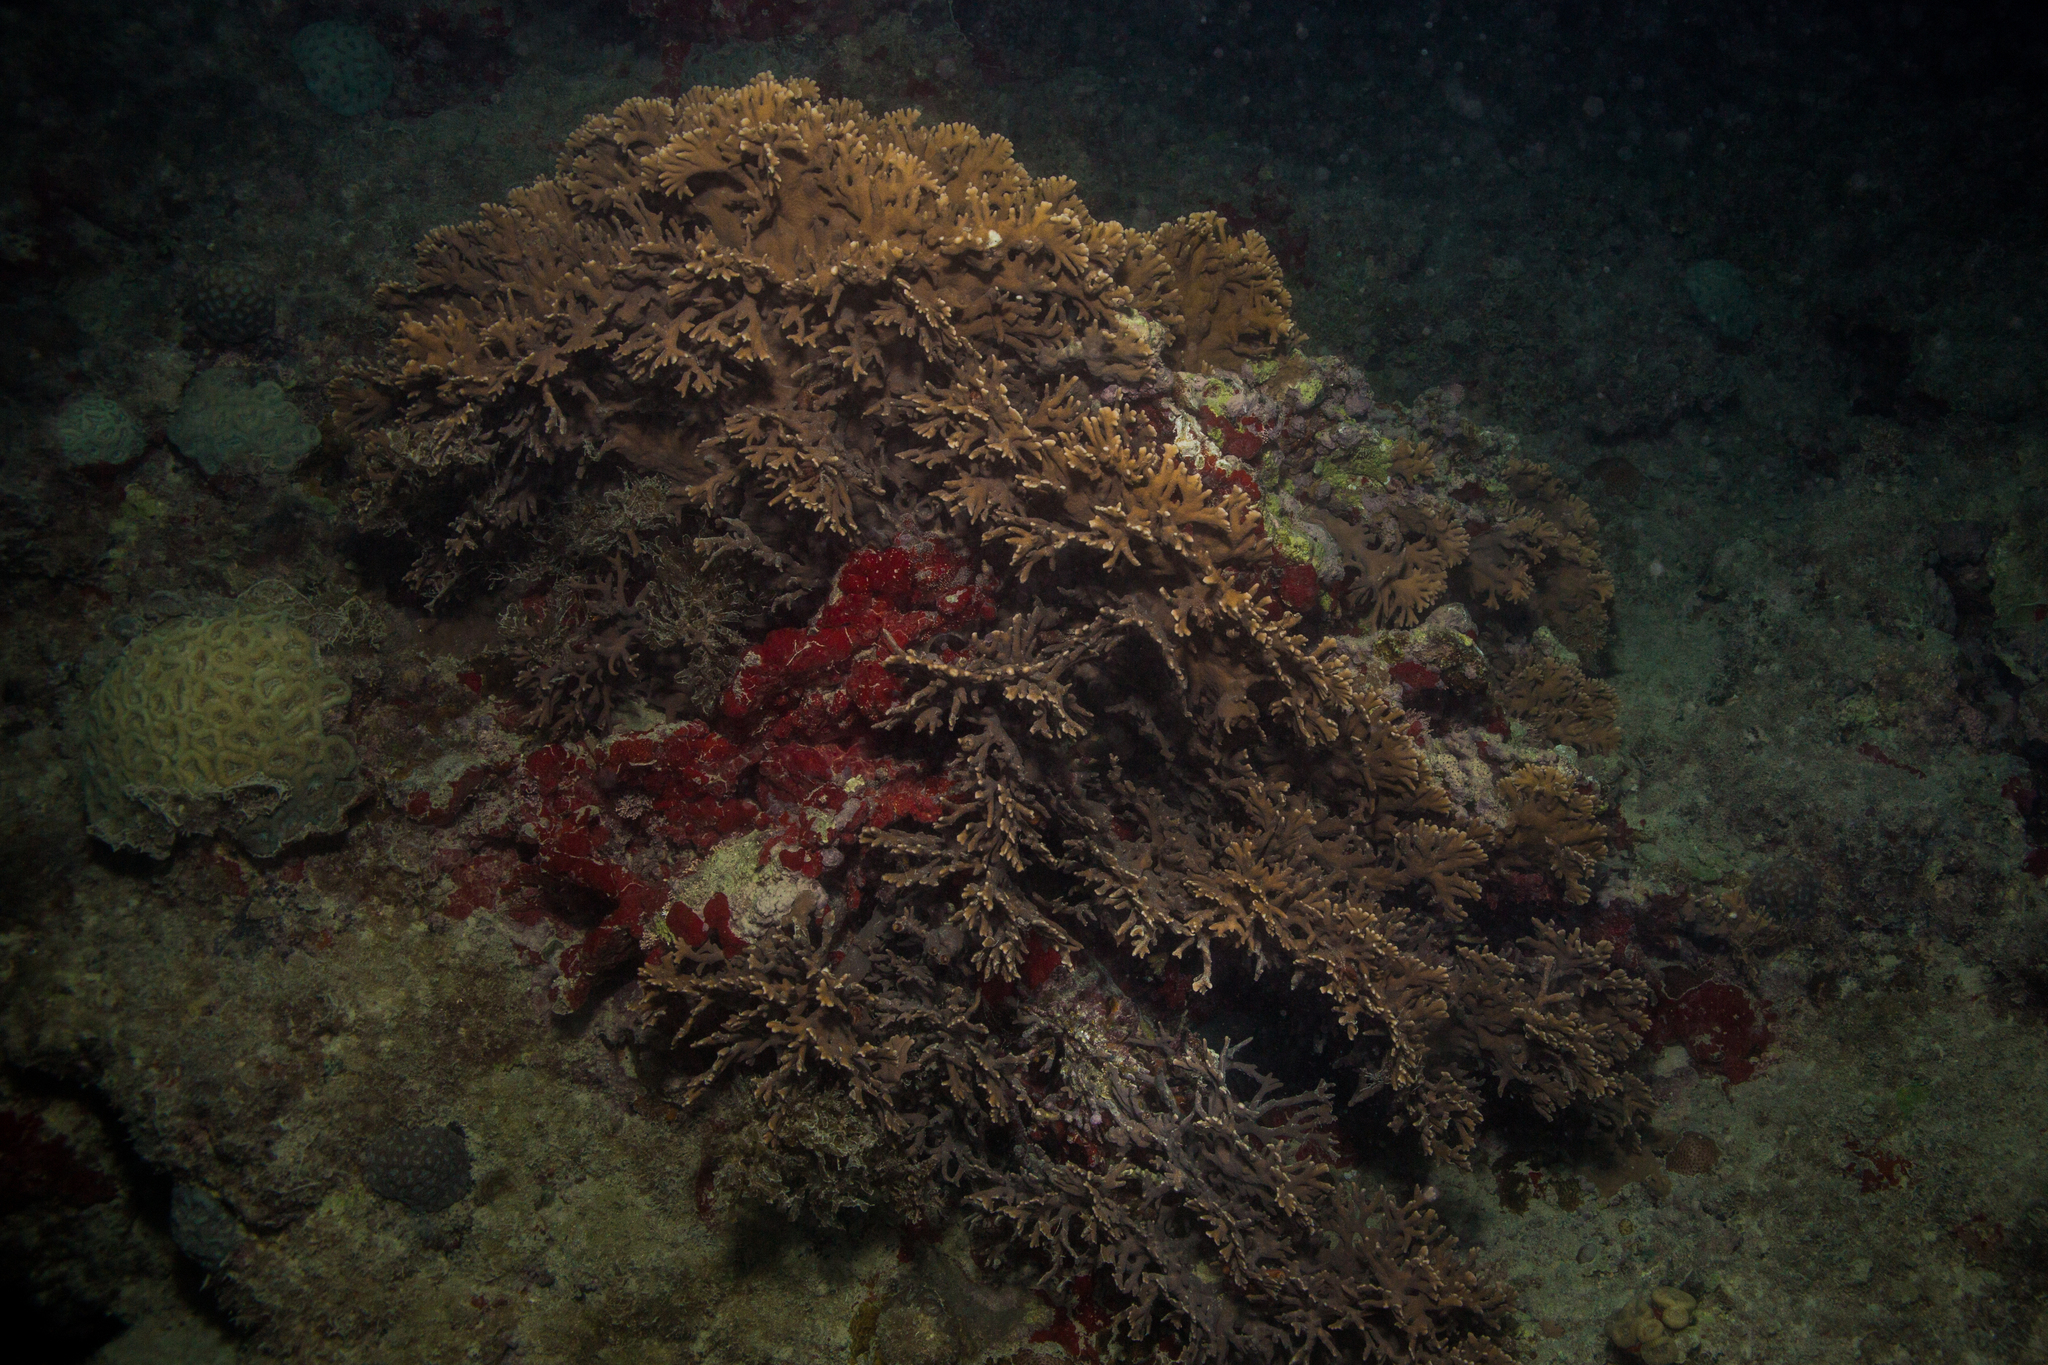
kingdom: Animalia
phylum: Cnidaria
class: Hydrozoa
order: Anthoathecata
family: Milleporidae
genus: Millepora
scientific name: Millepora alcicornis
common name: Branching fire coral
